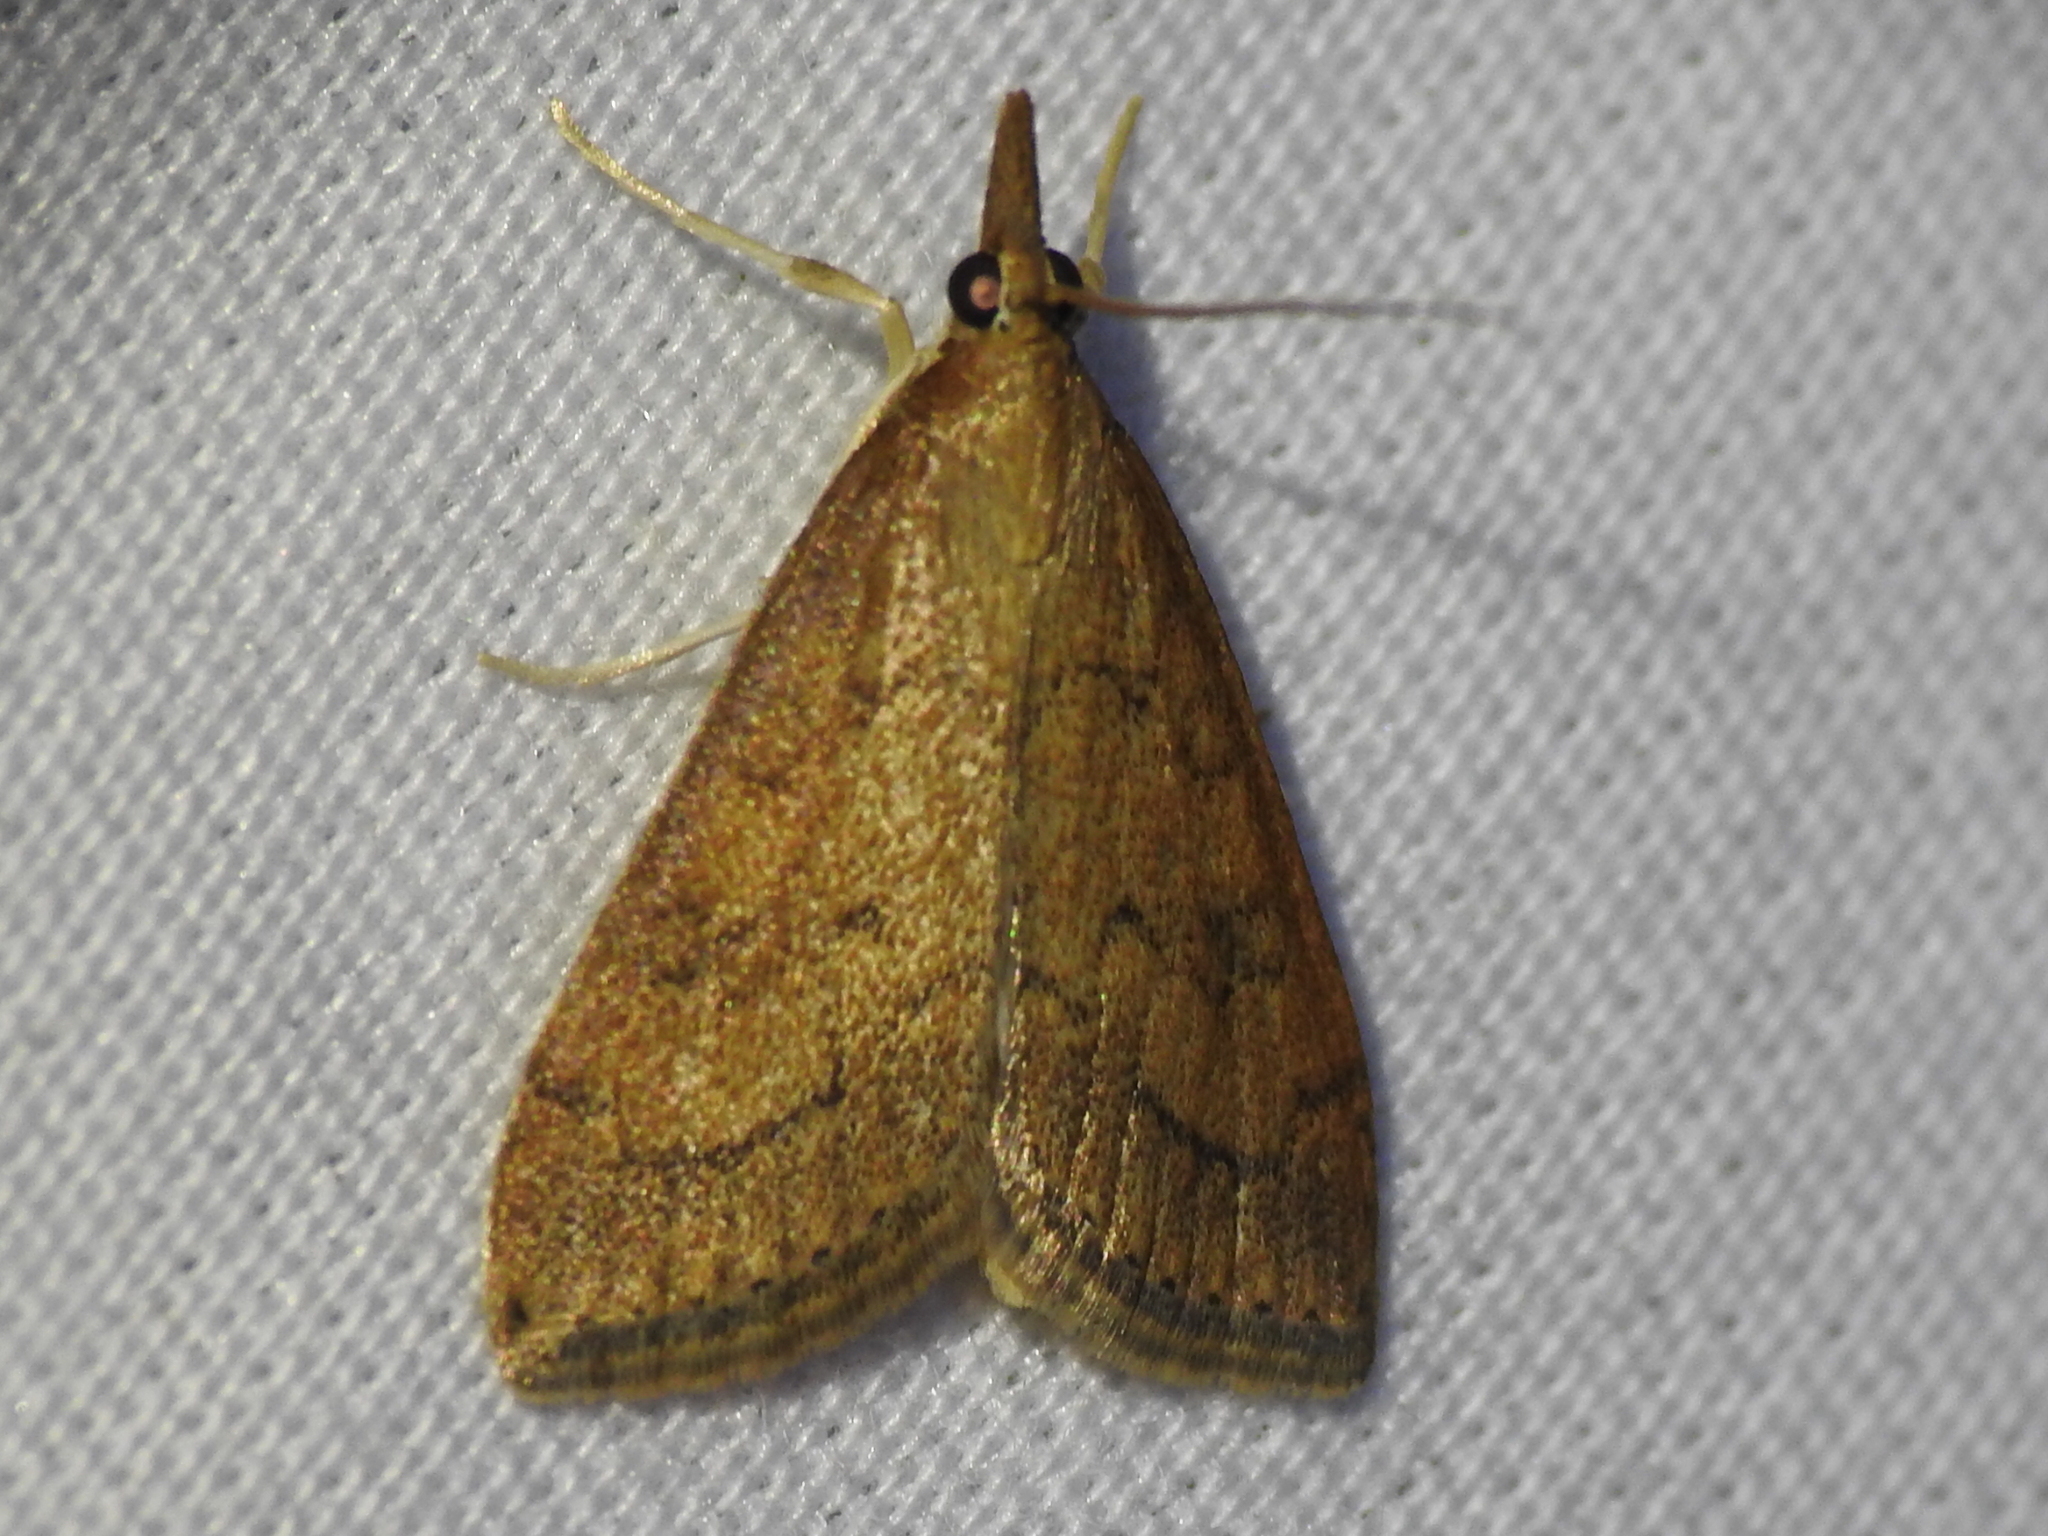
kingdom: Animalia
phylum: Arthropoda
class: Insecta
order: Lepidoptera
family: Crambidae
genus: Udea
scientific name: Udea rubigalis
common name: Celery leaftier moth
